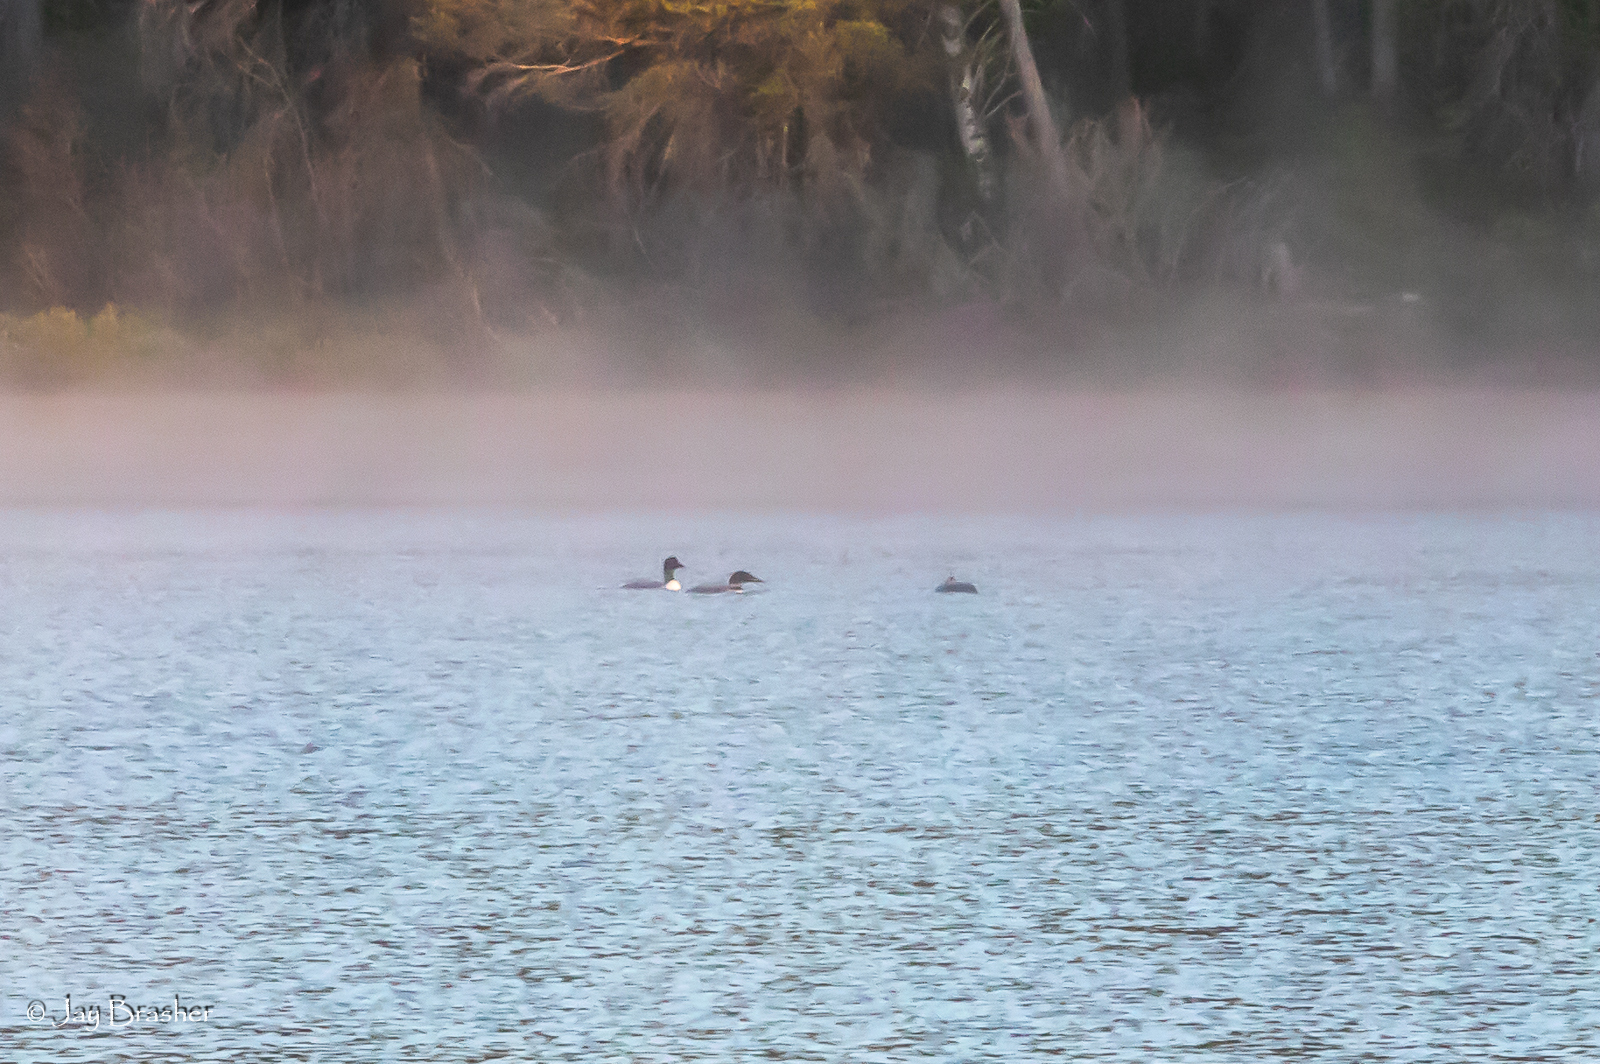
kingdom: Animalia
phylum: Chordata
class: Aves
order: Gaviiformes
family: Gaviidae
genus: Gavia
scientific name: Gavia immer
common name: Common loon
